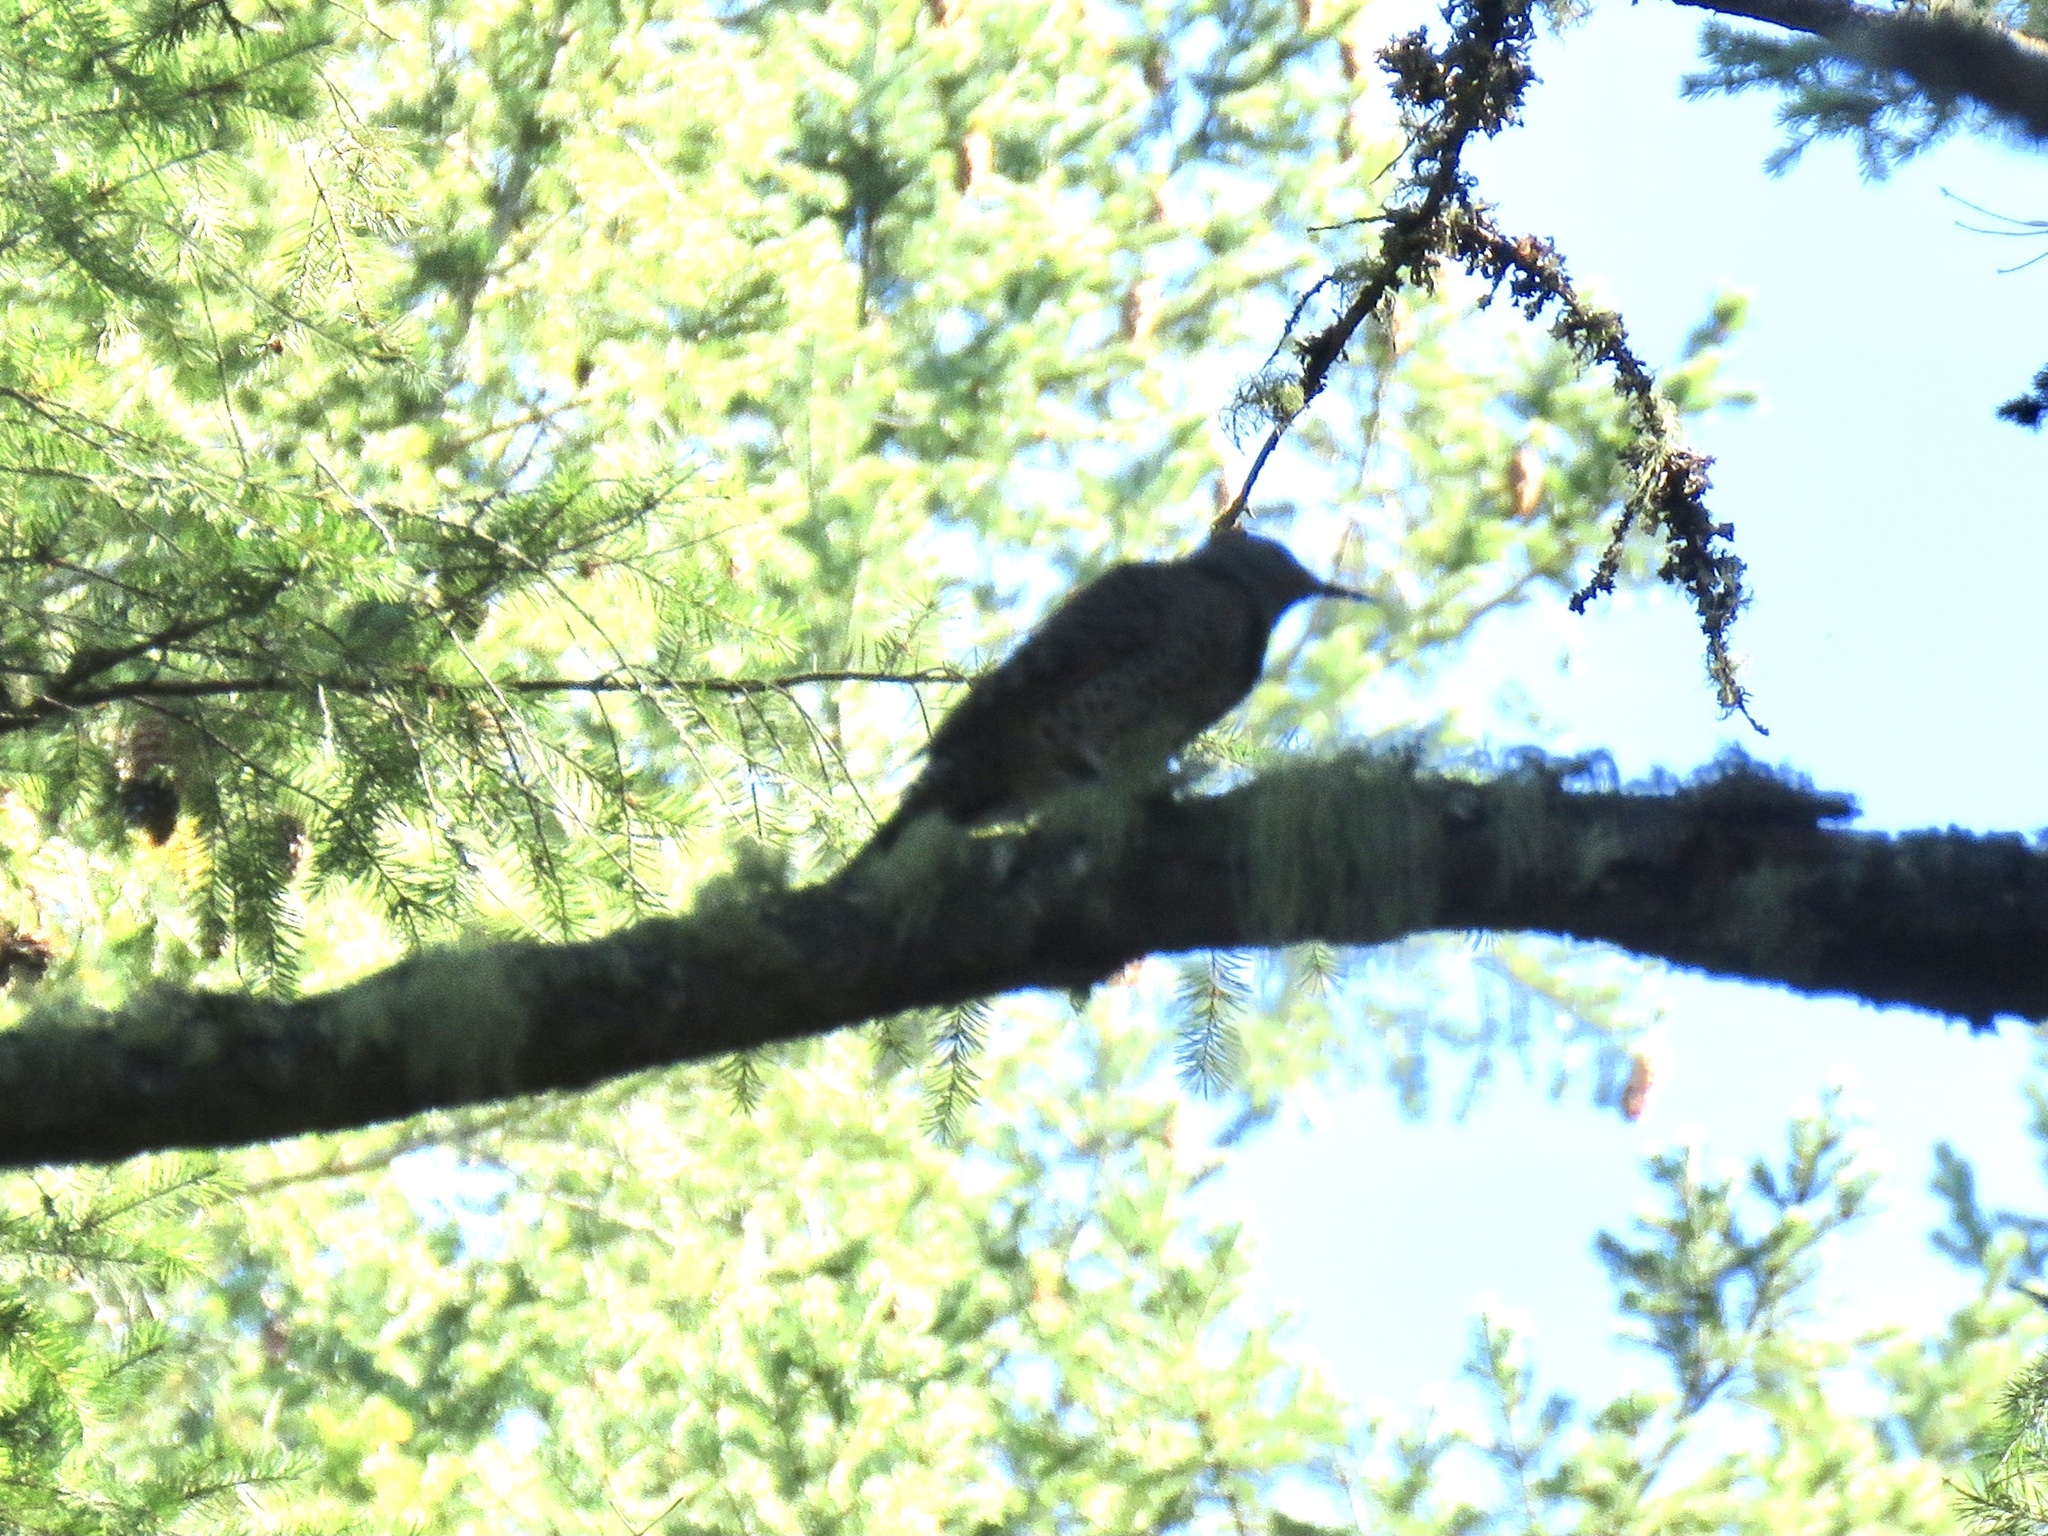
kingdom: Animalia
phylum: Chordata
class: Aves
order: Piciformes
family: Picidae
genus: Colaptes
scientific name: Colaptes auratus
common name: Northern flicker
